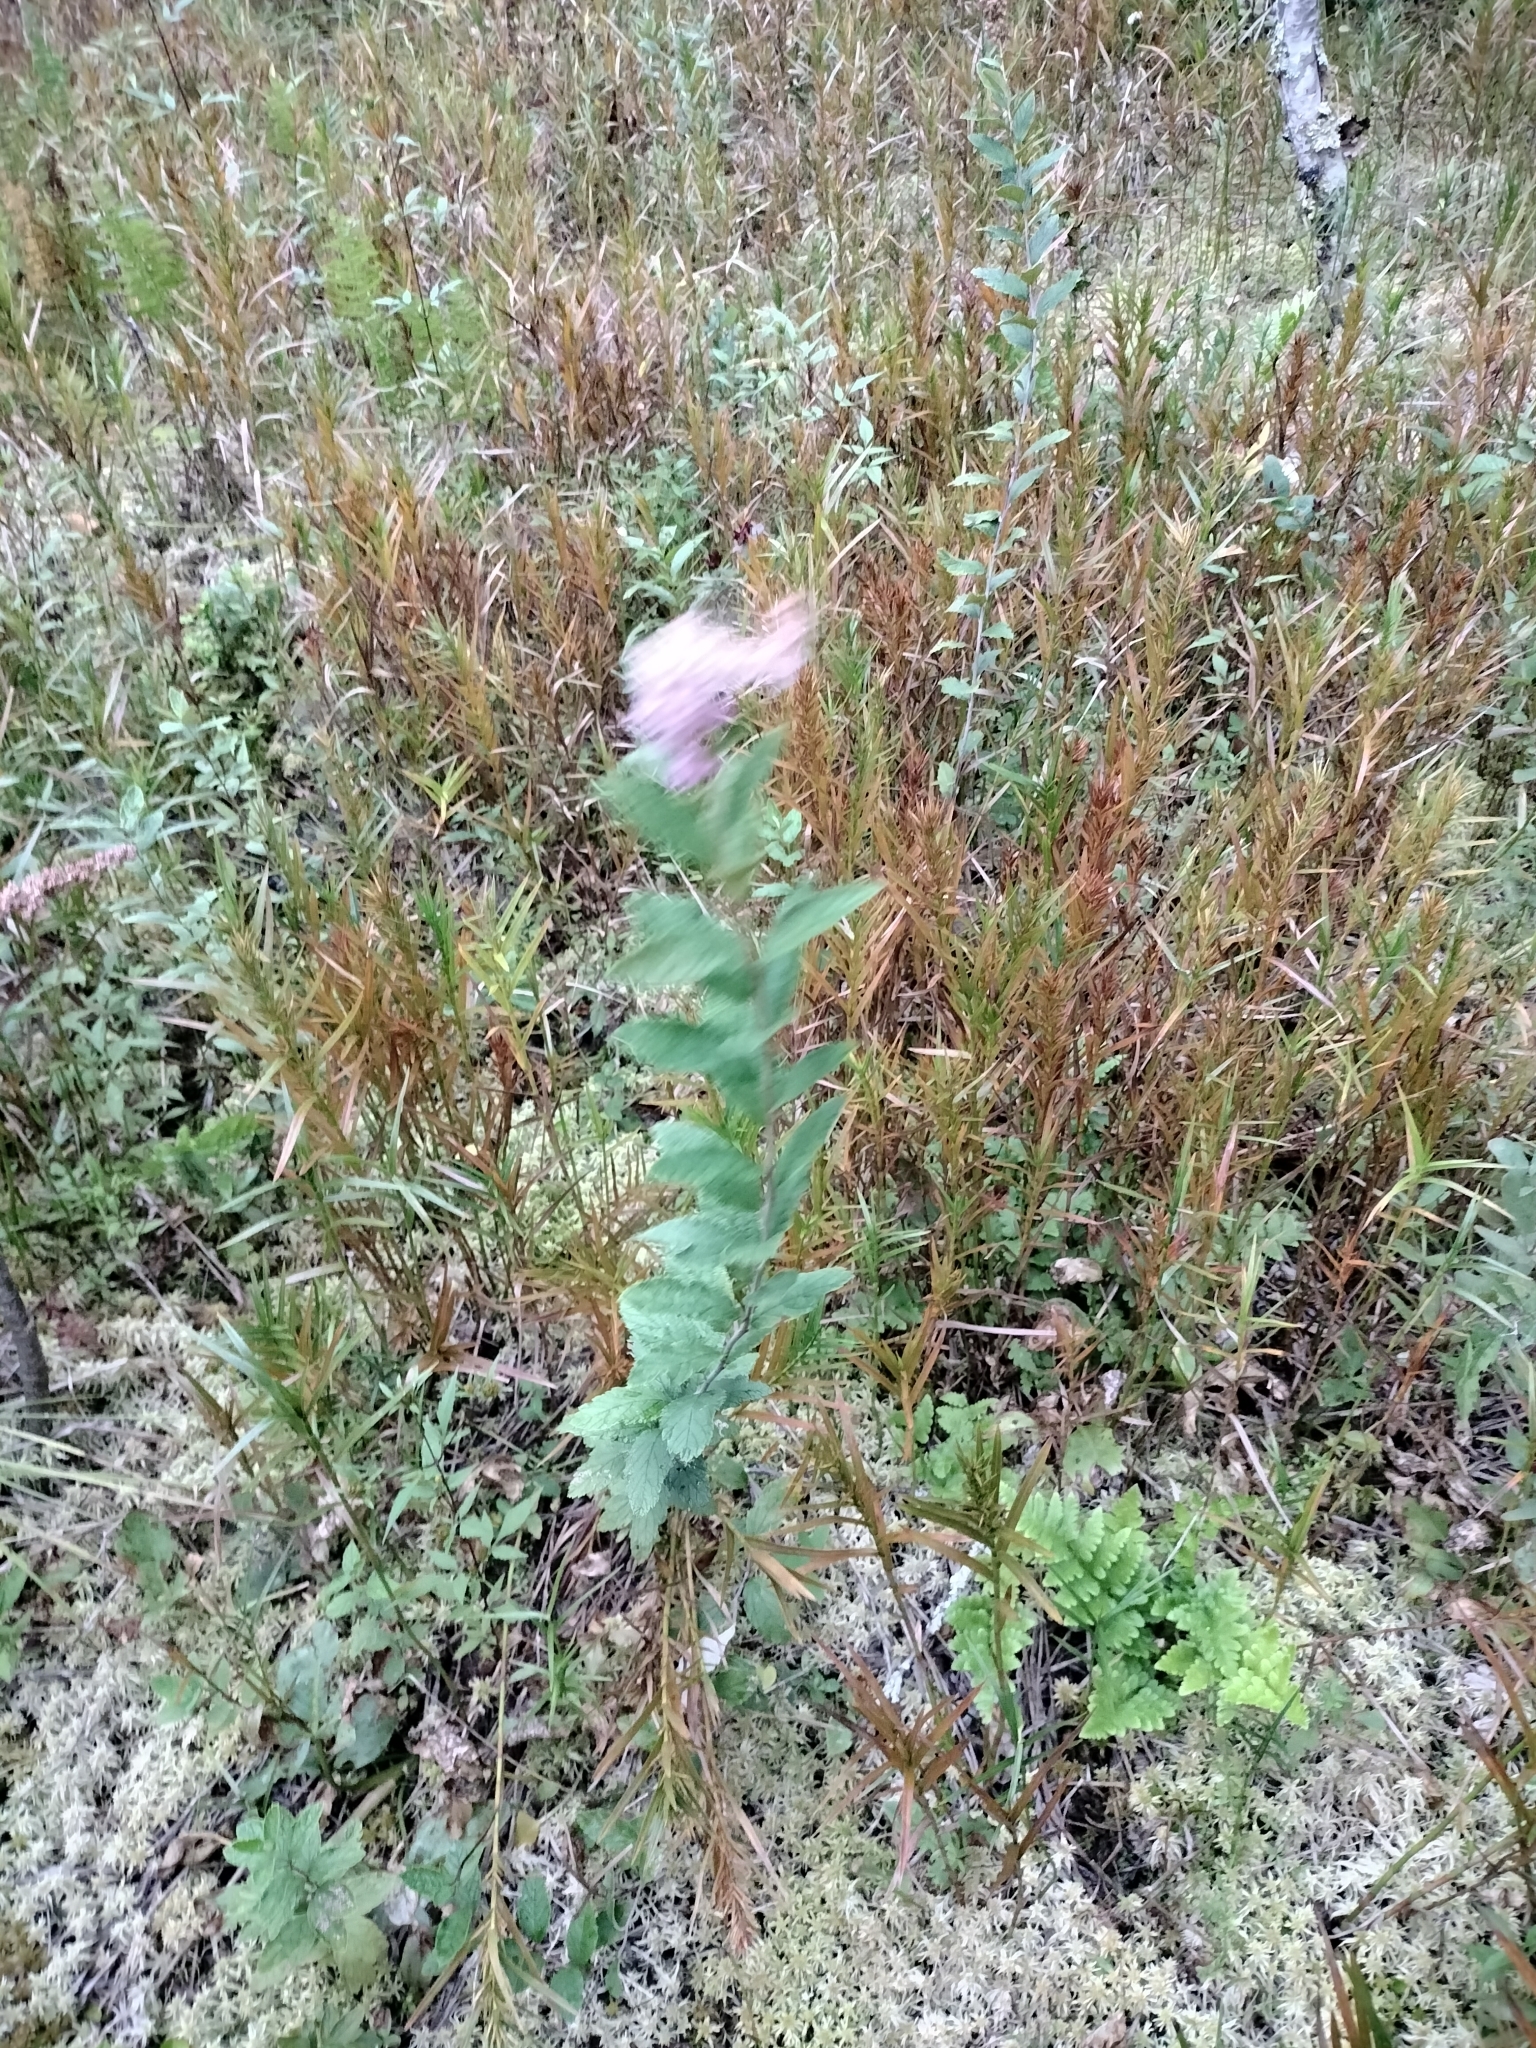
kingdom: Plantae
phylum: Tracheophyta
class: Magnoliopsida
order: Rosales
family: Rosaceae
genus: Spiraea
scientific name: Spiraea tomentosa
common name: Hardhack
